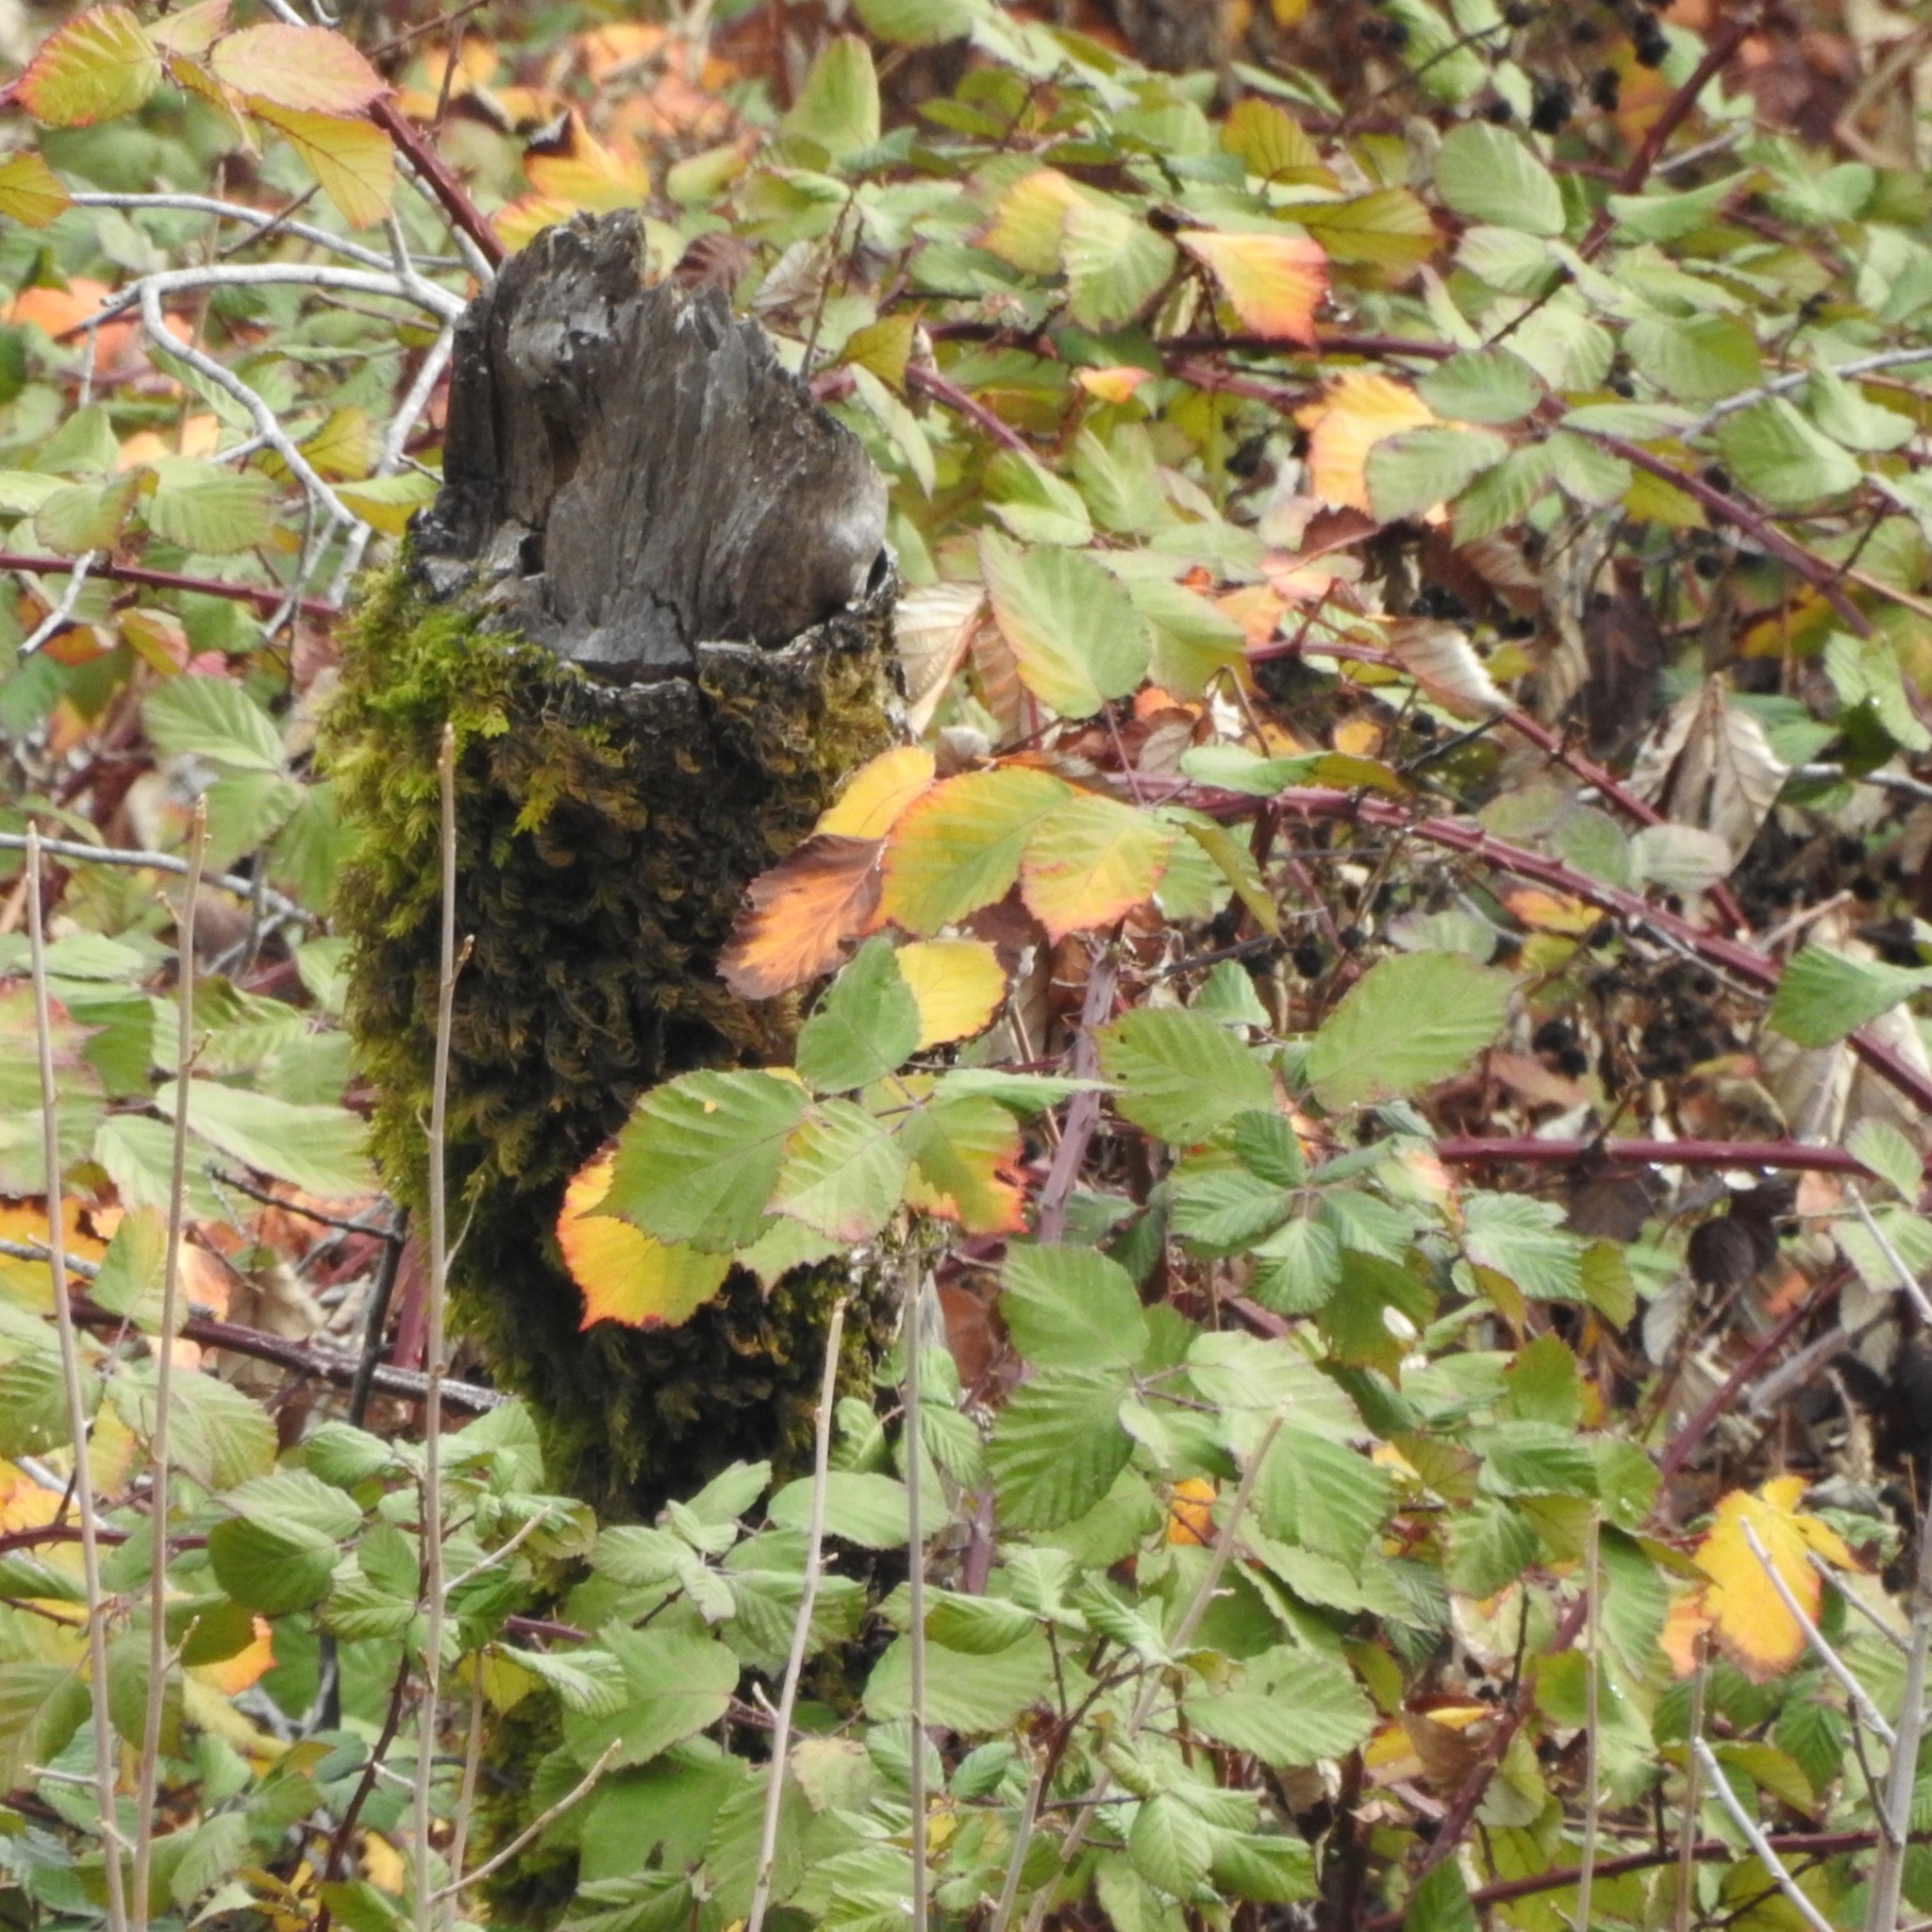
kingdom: Plantae
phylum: Tracheophyta
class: Magnoliopsida
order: Rosales
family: Rosaceae
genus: Rubus
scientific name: Rubus armeniacus
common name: Himalayan blackberry
